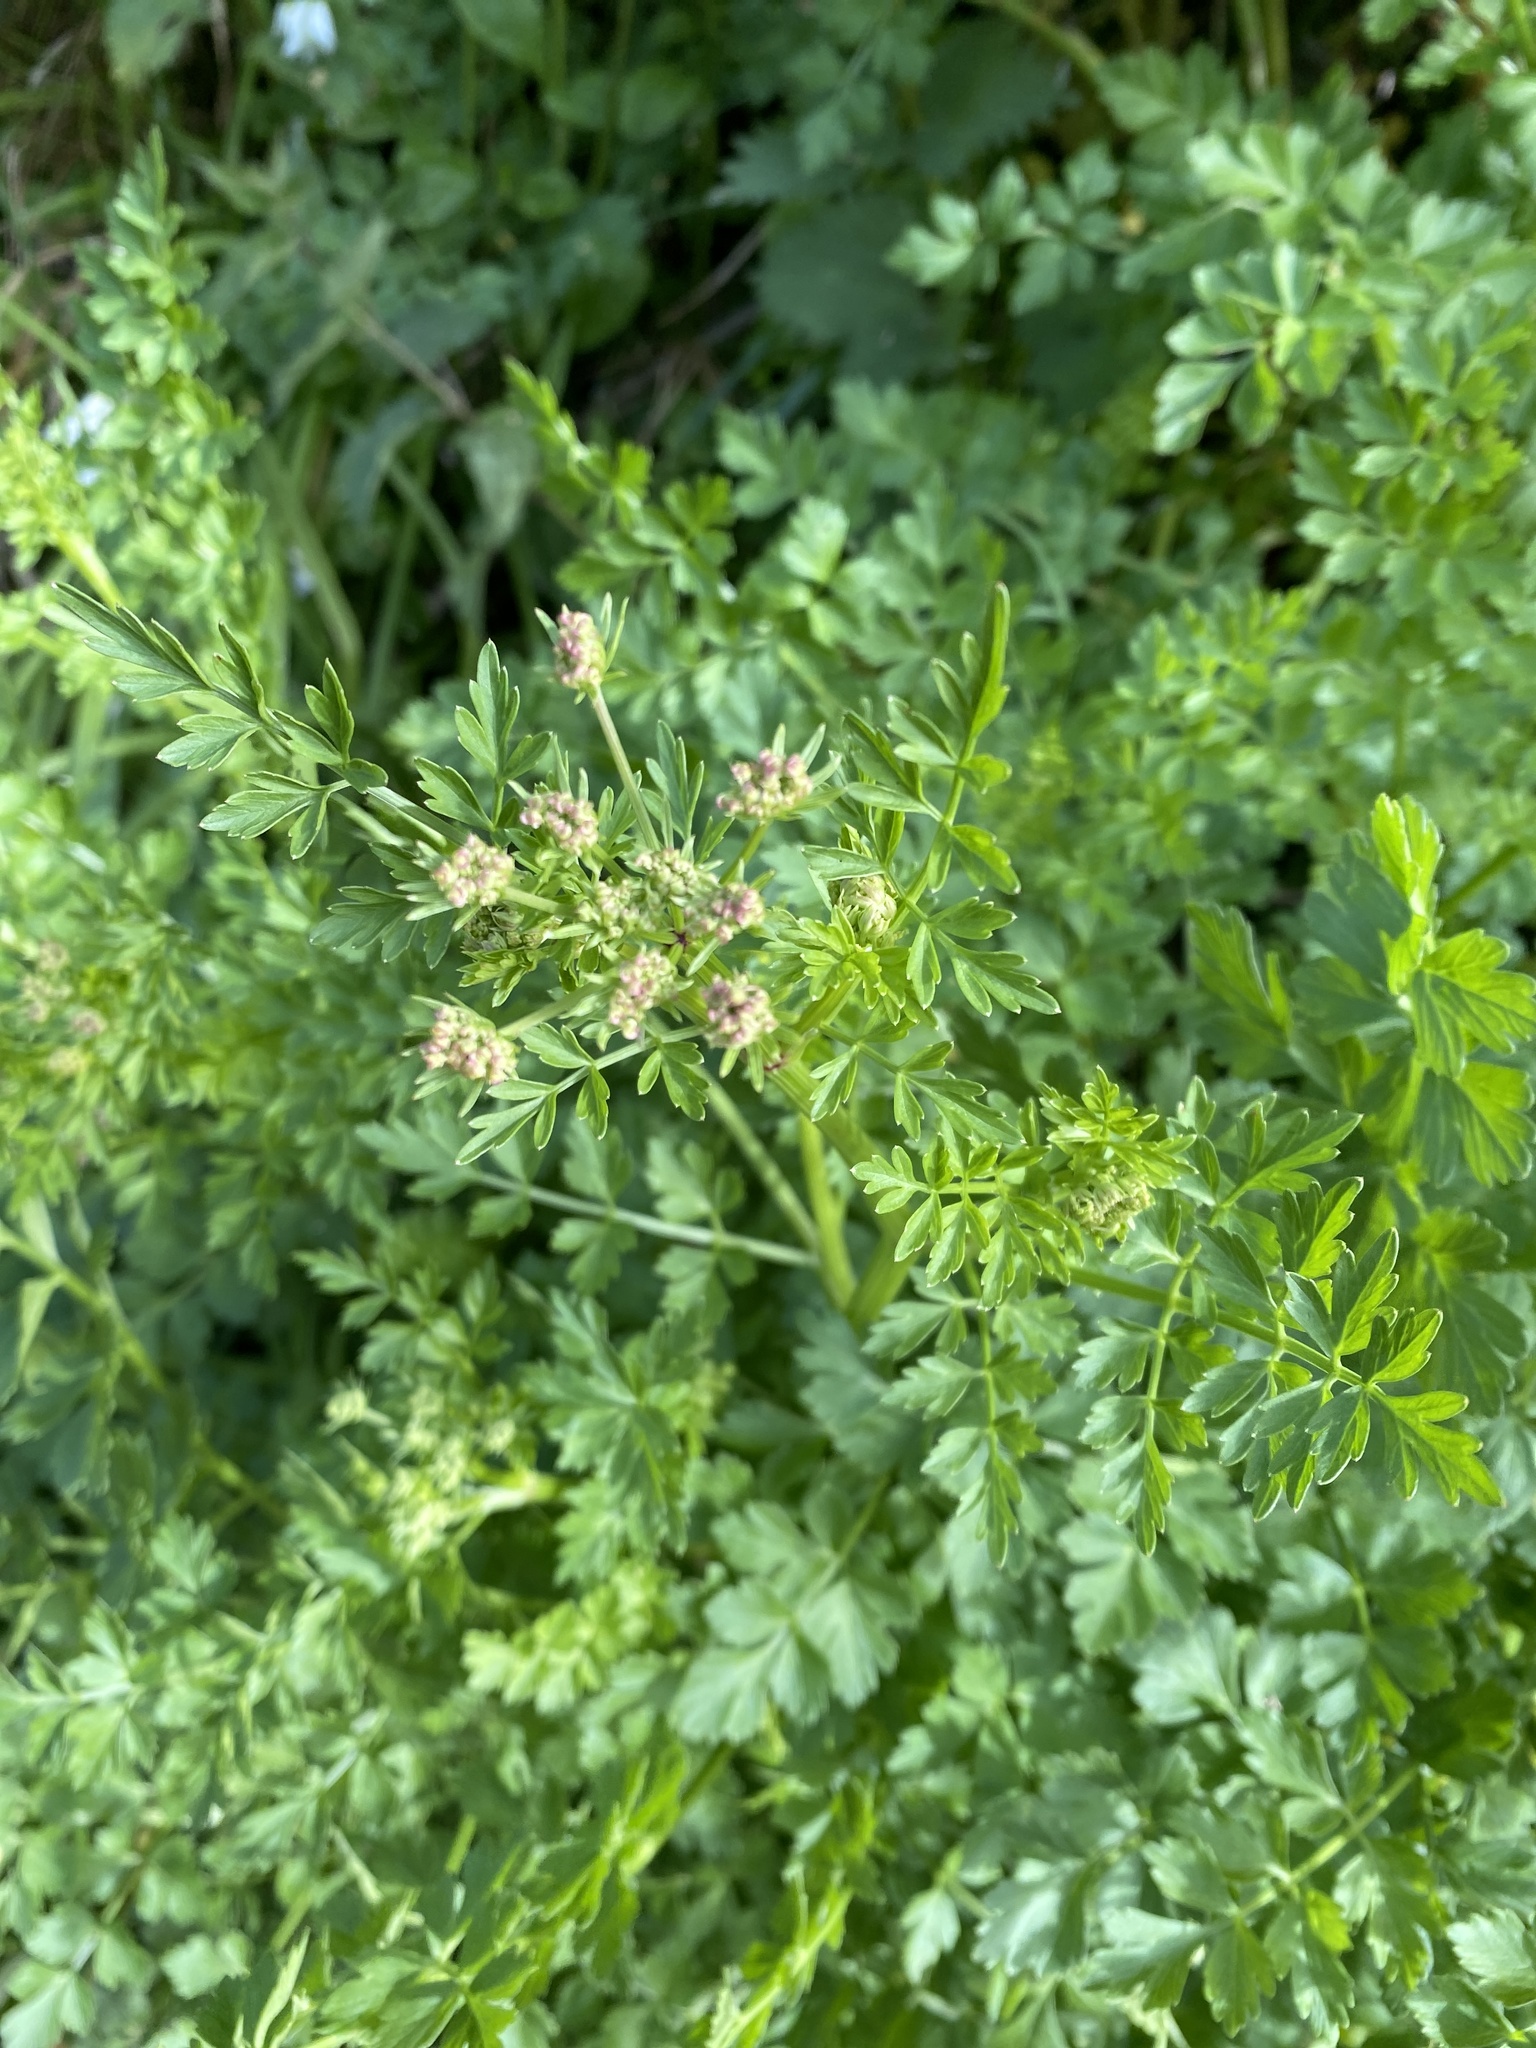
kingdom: Plantae
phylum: Tracheophyta
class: Magnoliopsida
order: Apiales
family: Apiaceae
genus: Oenanthe
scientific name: Oenanthe crocata
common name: Hemlock water-dropwort
